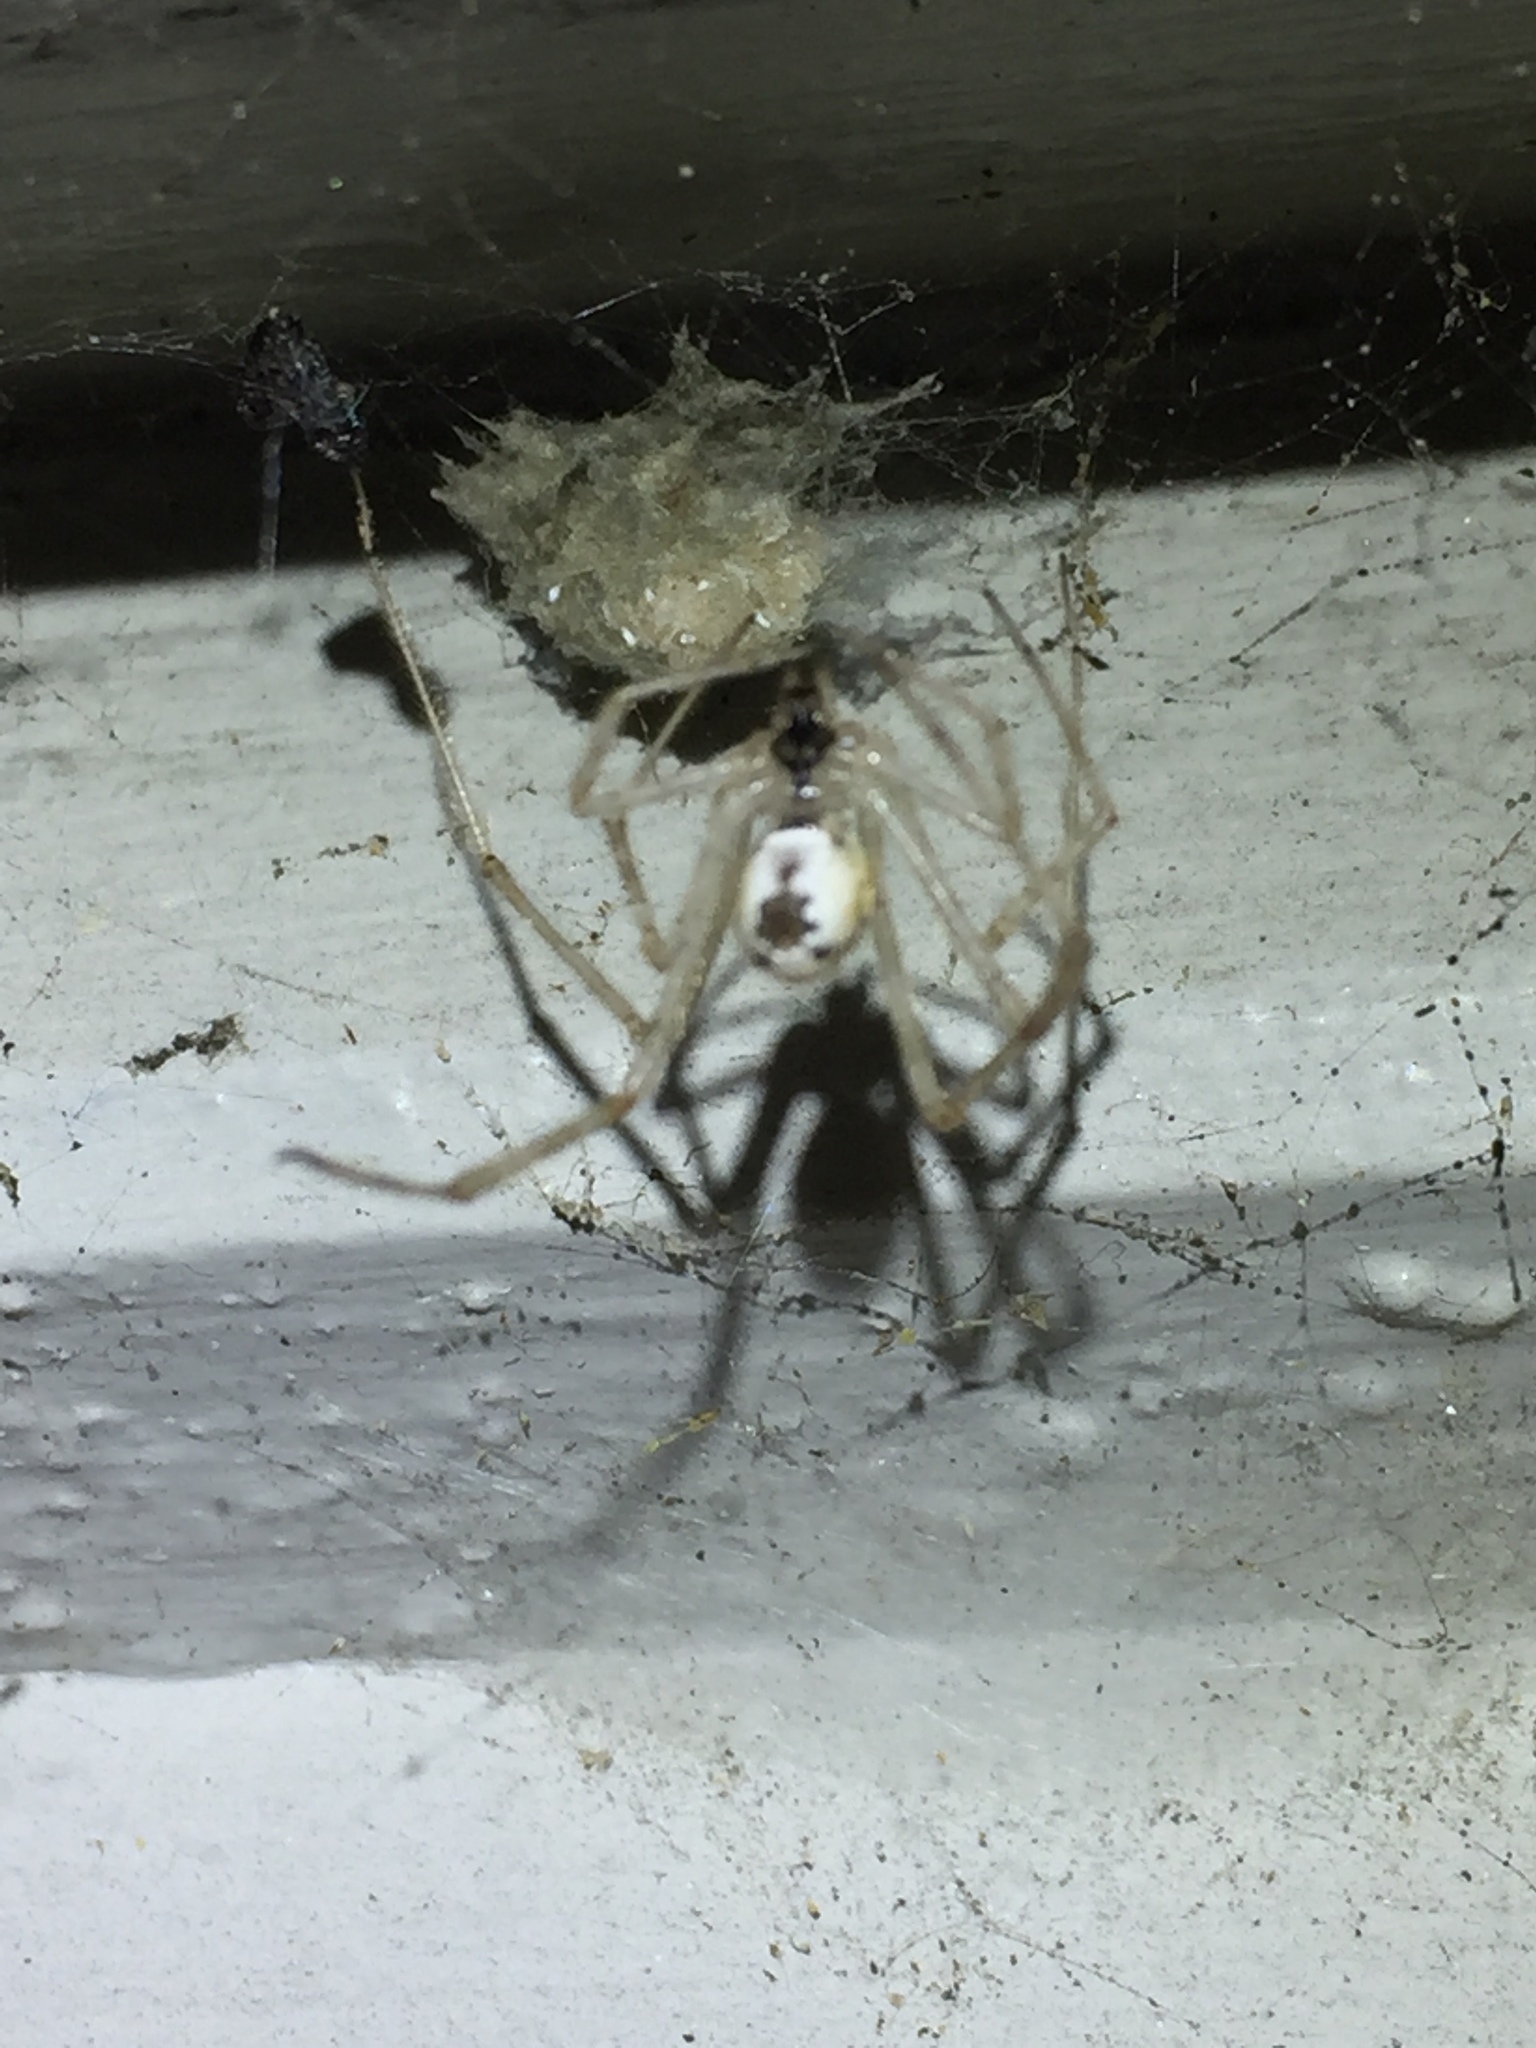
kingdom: Animalia
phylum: Arthropoda
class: Arachnida
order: Araneae
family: Theridiidae
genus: Cryptachaea
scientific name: Cryptachaea gigantipes
